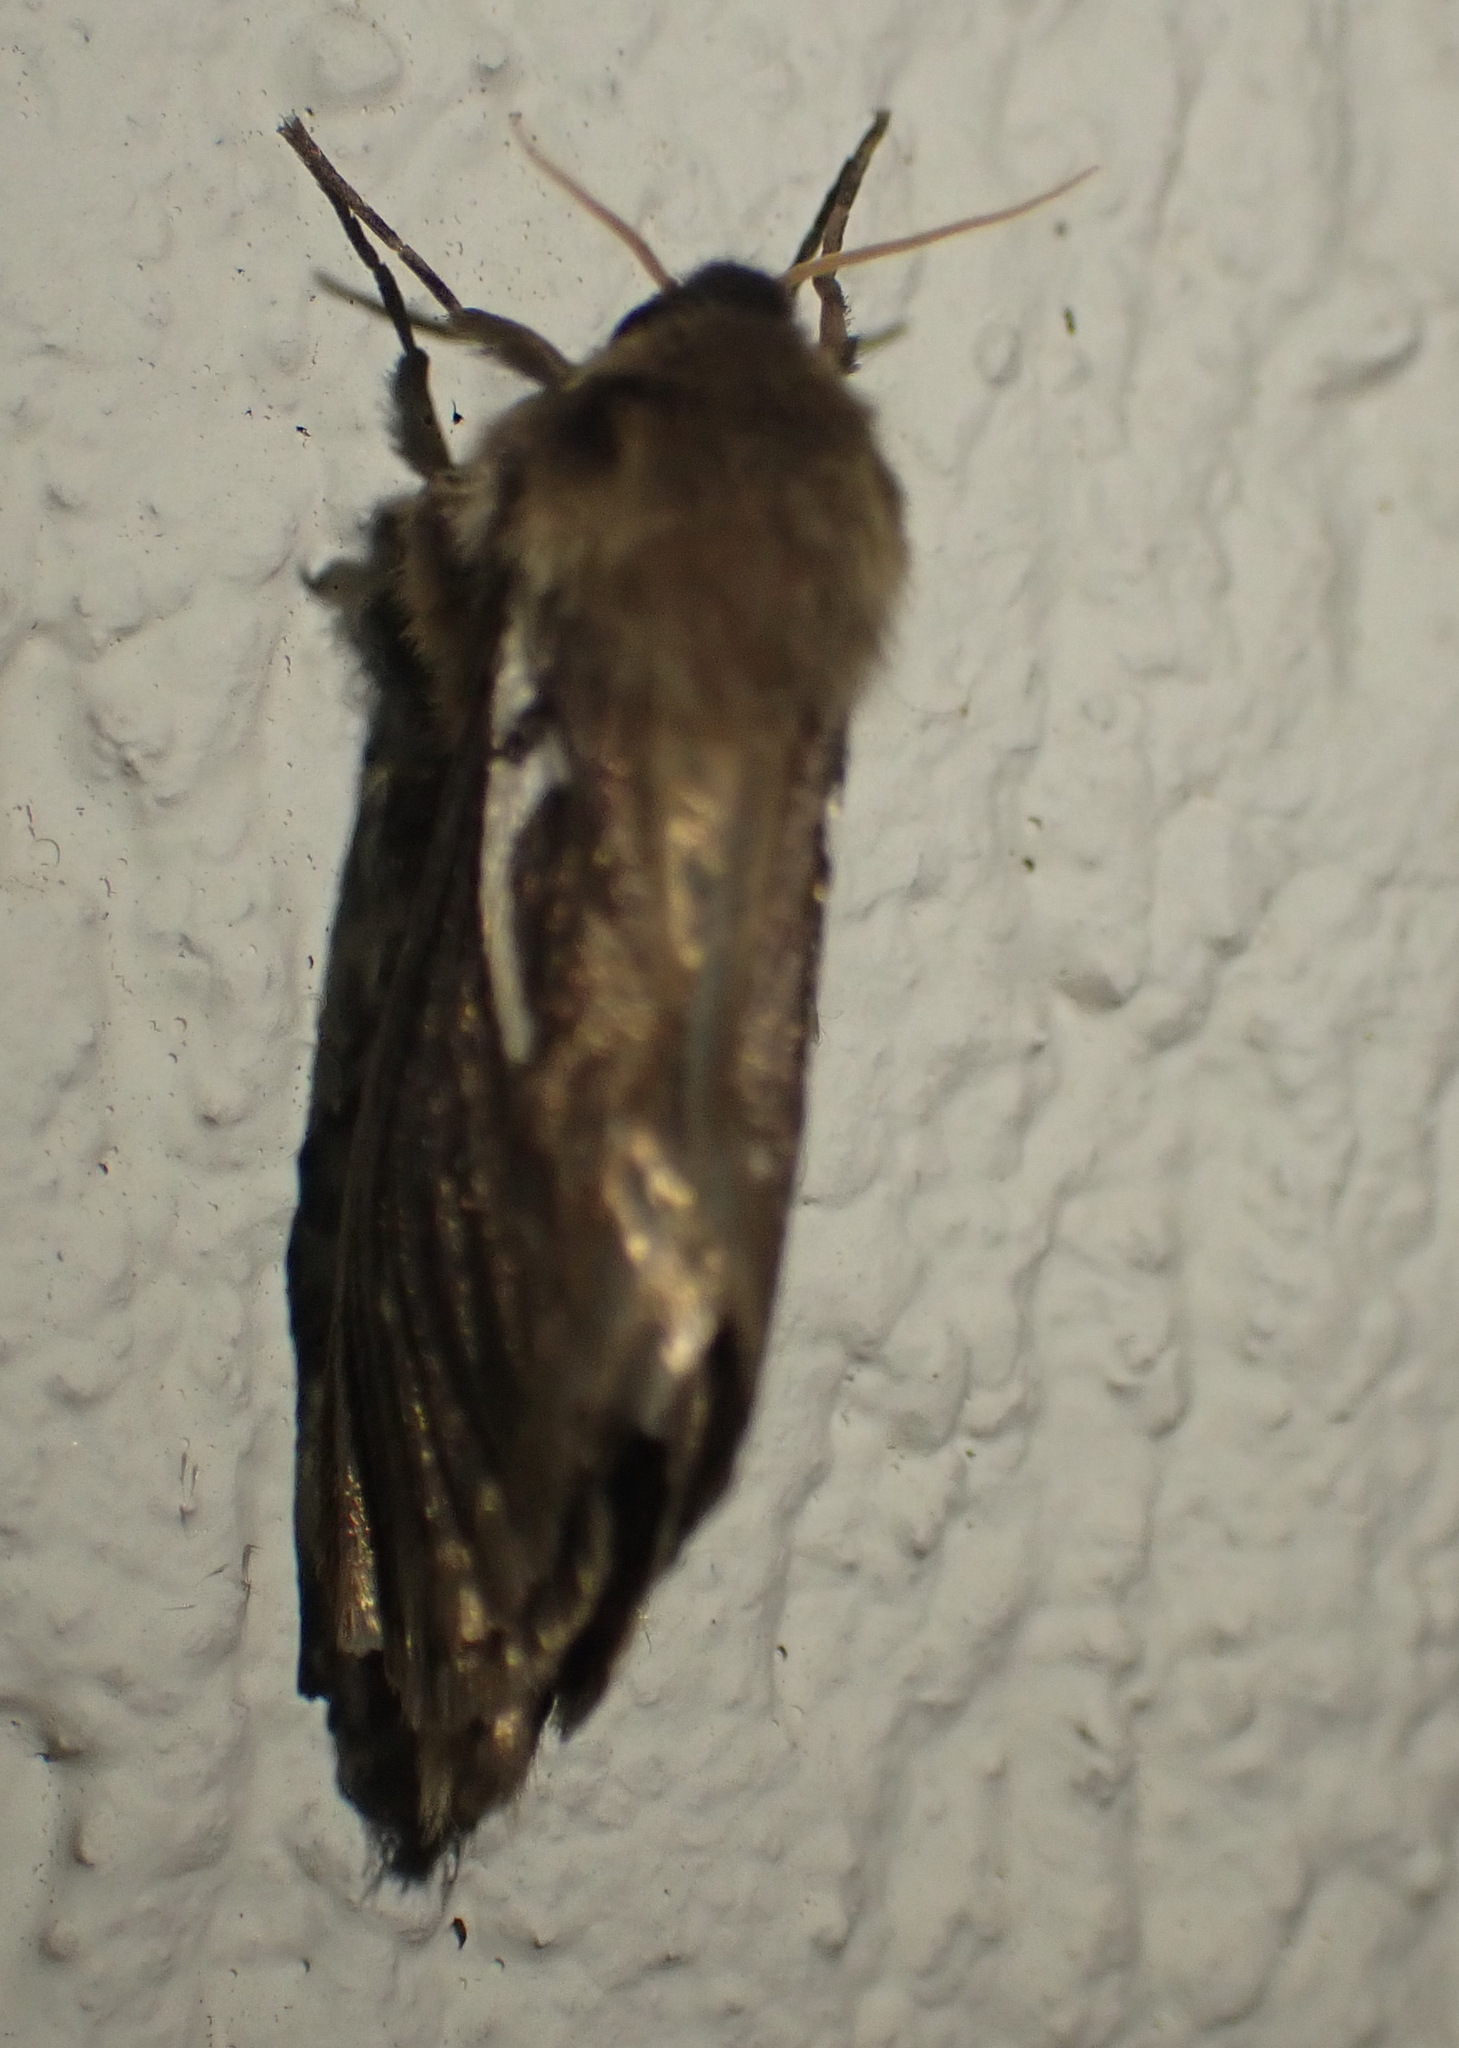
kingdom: Animalia
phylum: Arthropoda
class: Insecta
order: Lepidoptera
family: Hepialidae
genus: Eudalaca
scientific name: Eudalaca vindex
